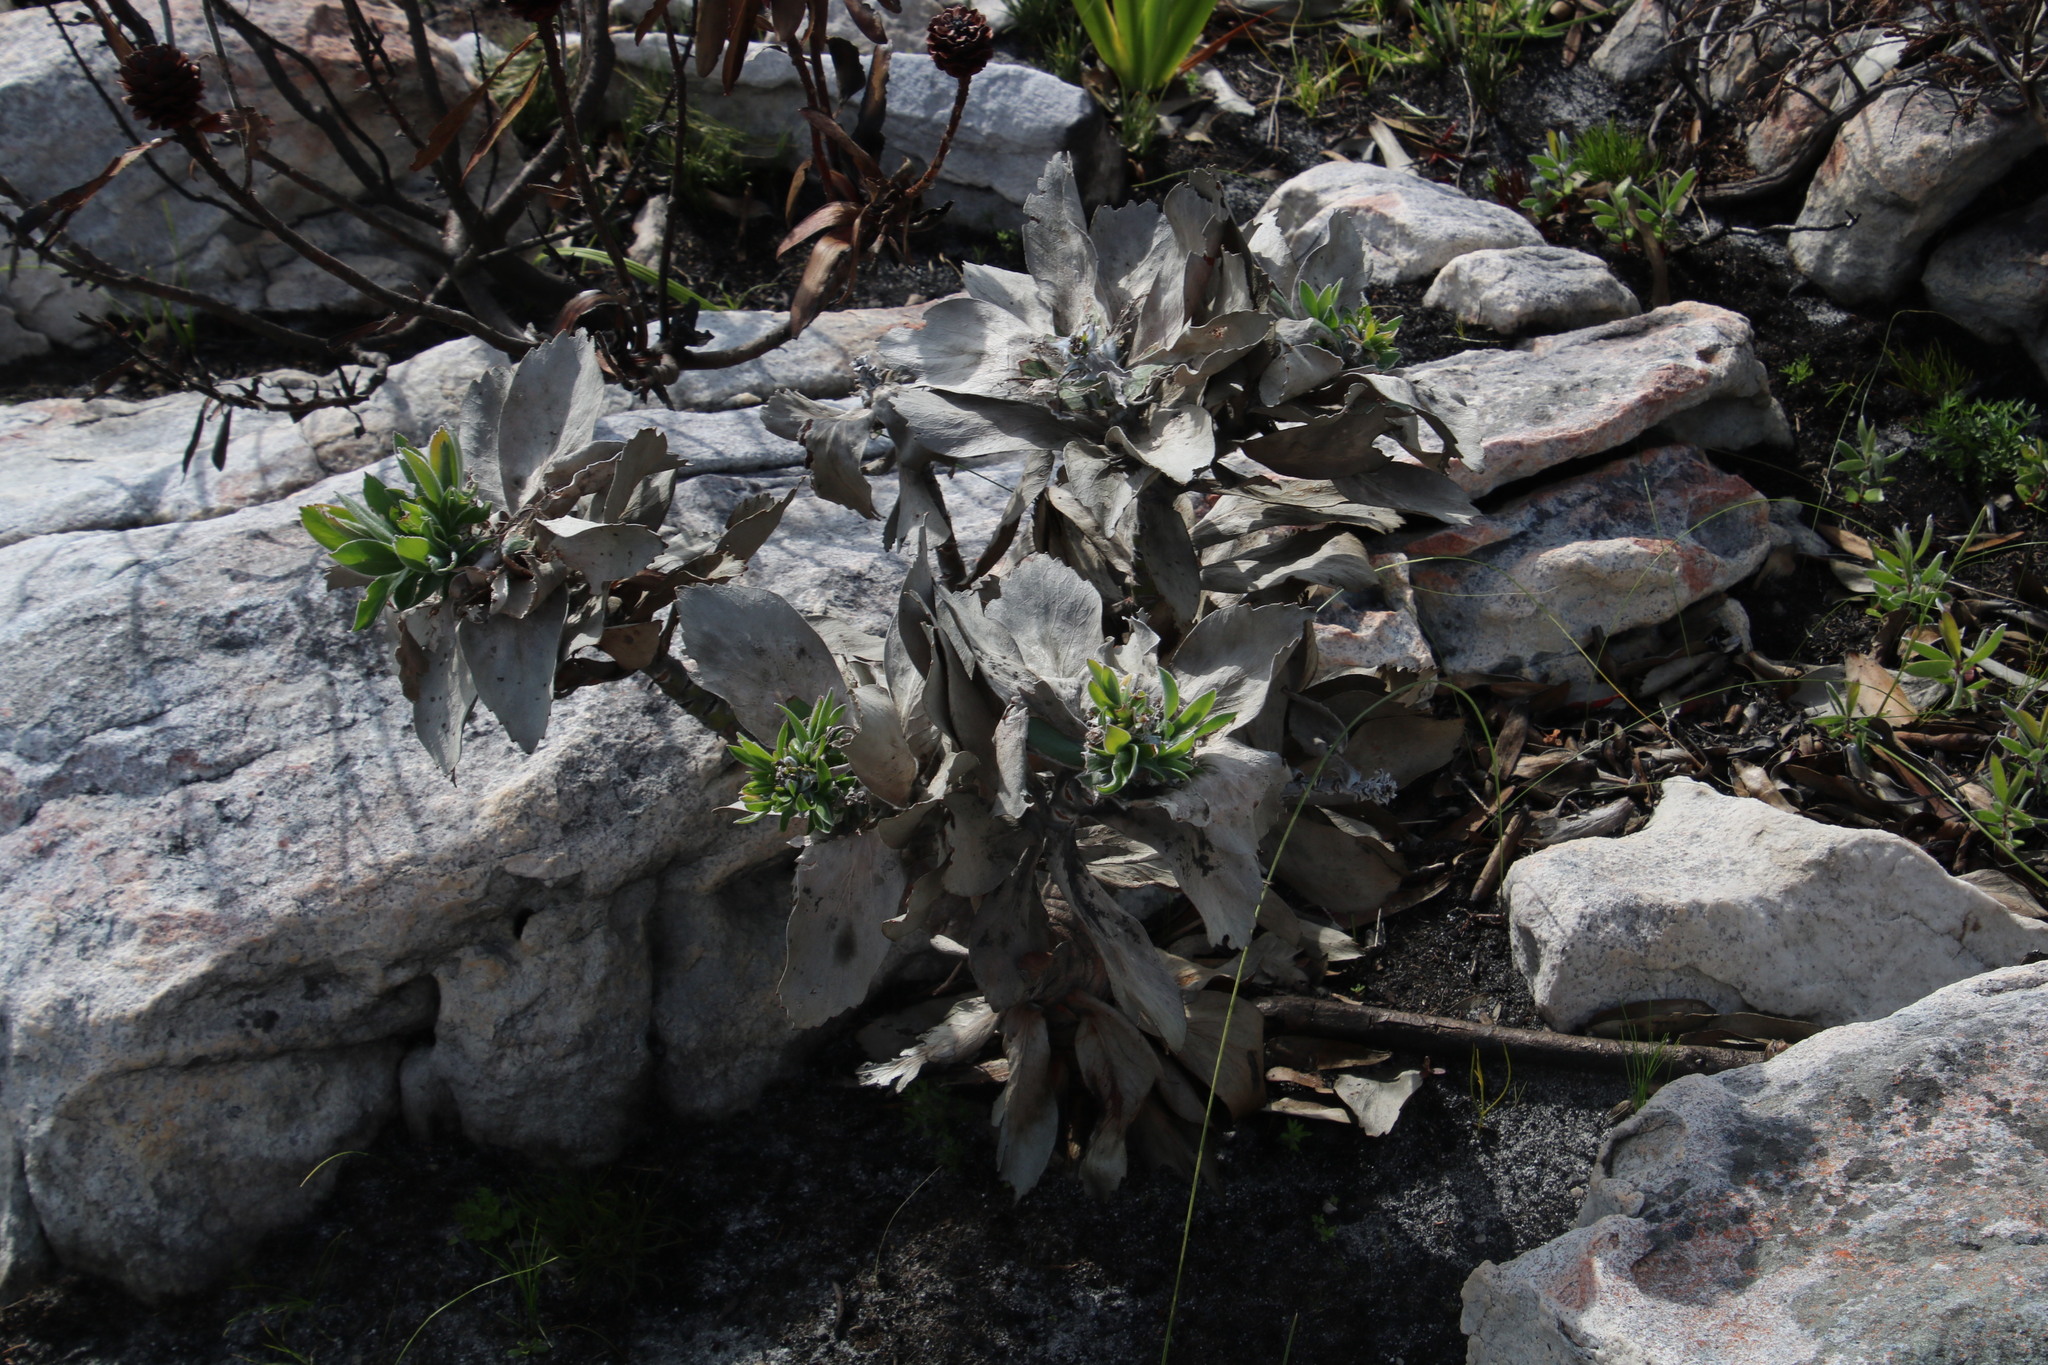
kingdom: Plantae
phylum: Tracheophyta
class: Magnoliopsida
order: Proteales
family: Proteaceae
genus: Leucospermum
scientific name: Leucospermum conocarpodendron
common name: Tree pincushion
